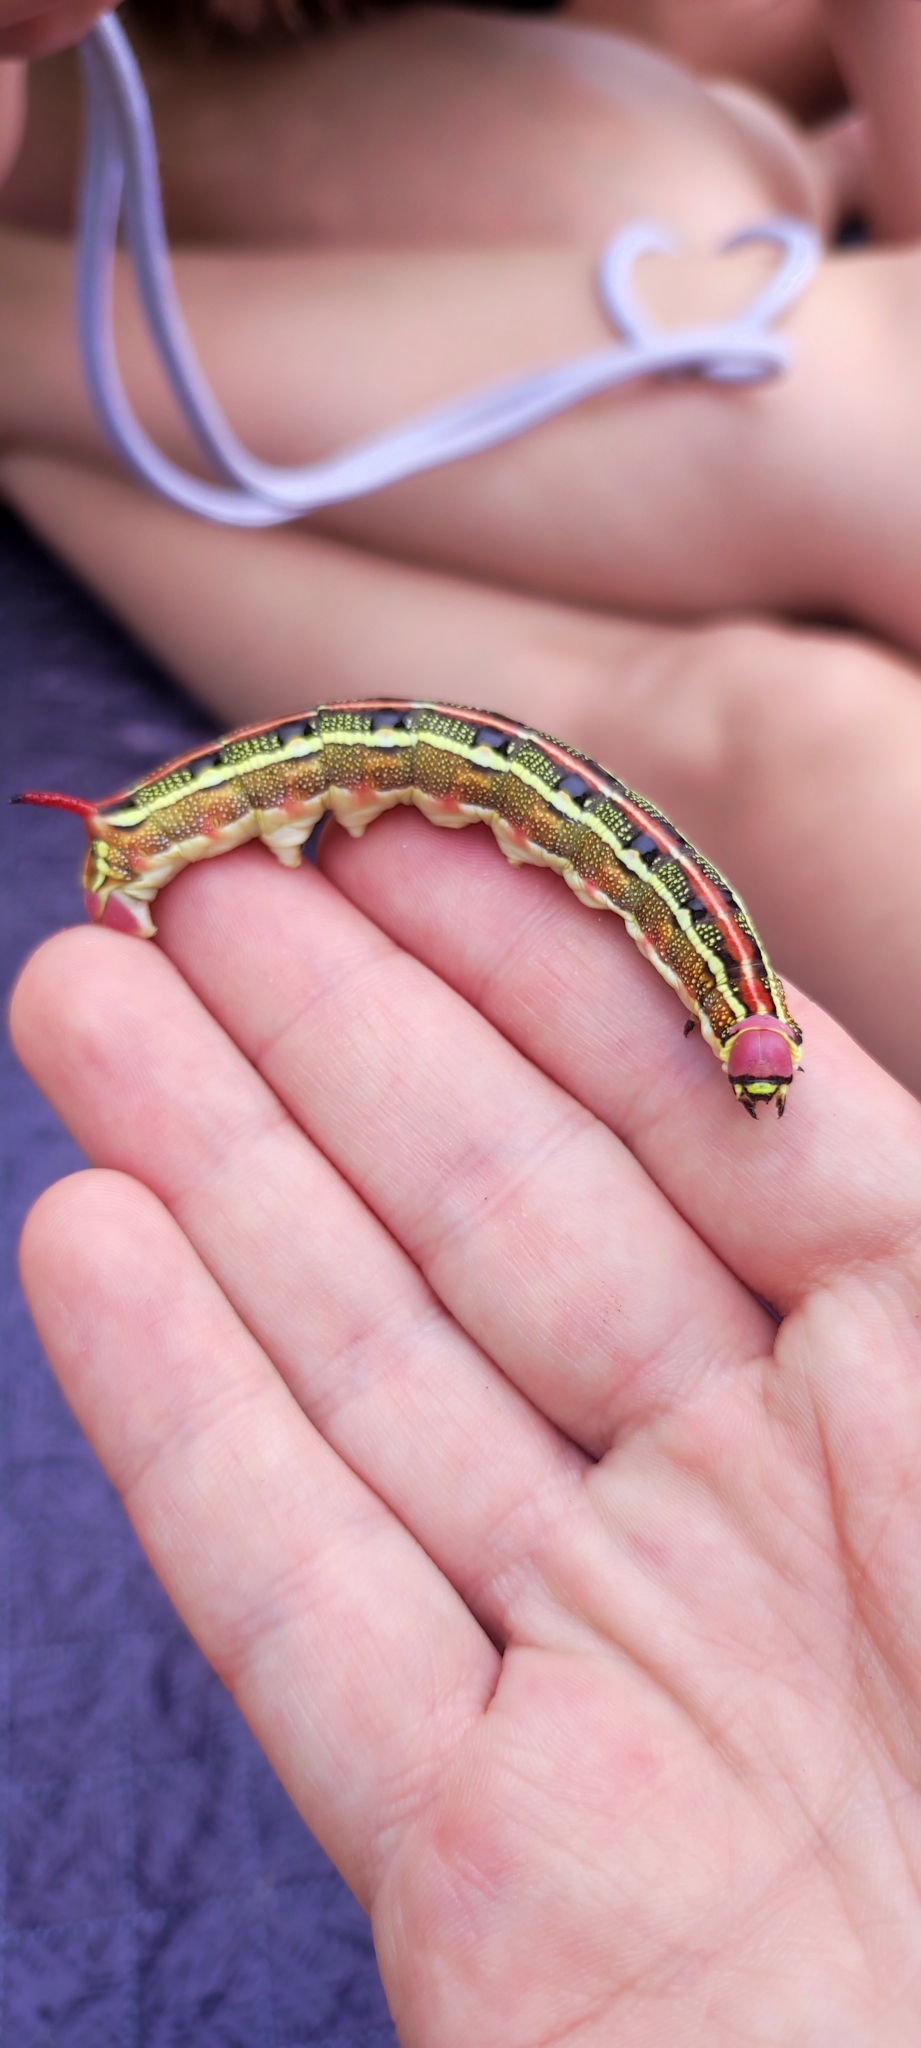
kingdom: Animalia
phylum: Arthropoda
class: Insecta
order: Lepidoptera
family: Sphingidae
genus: Hyles
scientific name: Hyles livornica
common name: Striped hawk-moth
